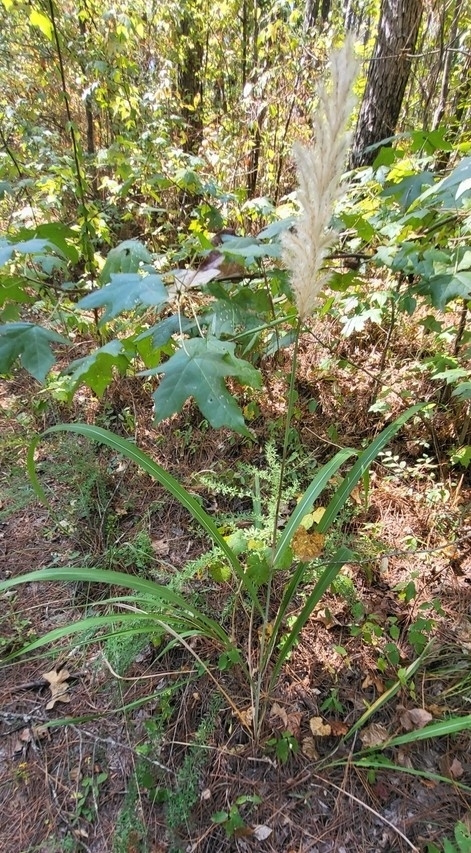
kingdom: Plantae
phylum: Tracheophyta
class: Liliopsida
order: Poales
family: Poaceae
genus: Erianthus
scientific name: Erianthus alopecuroides
